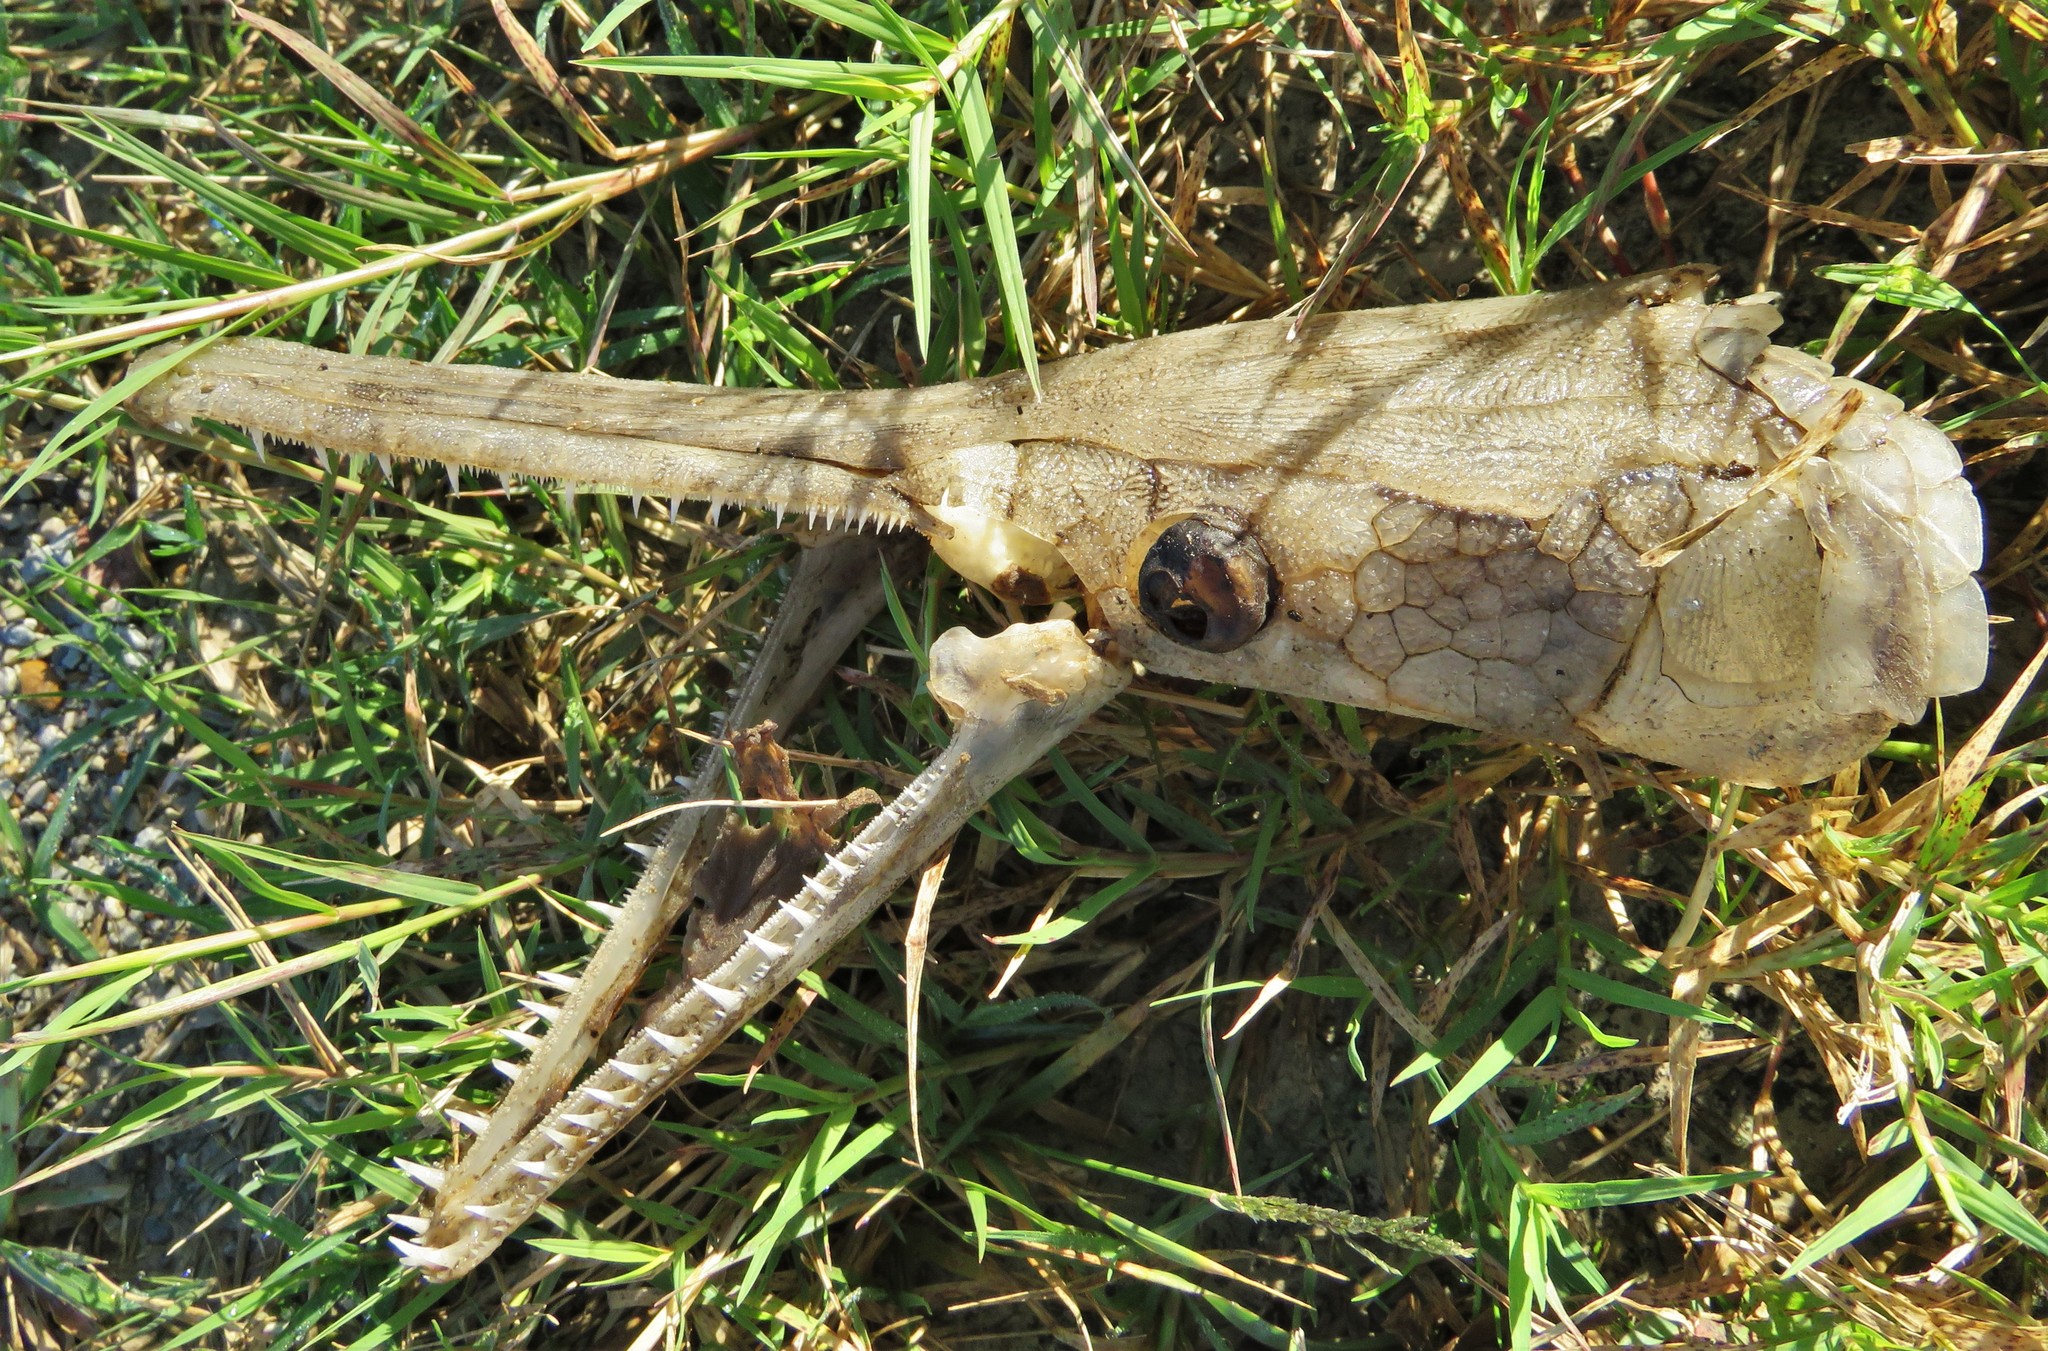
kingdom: Animalia
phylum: Chordata
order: Lepisosteiformes
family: Lepisosteidae
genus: Lepisosteus
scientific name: Lepisosteus oculatus
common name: Spotted gar
